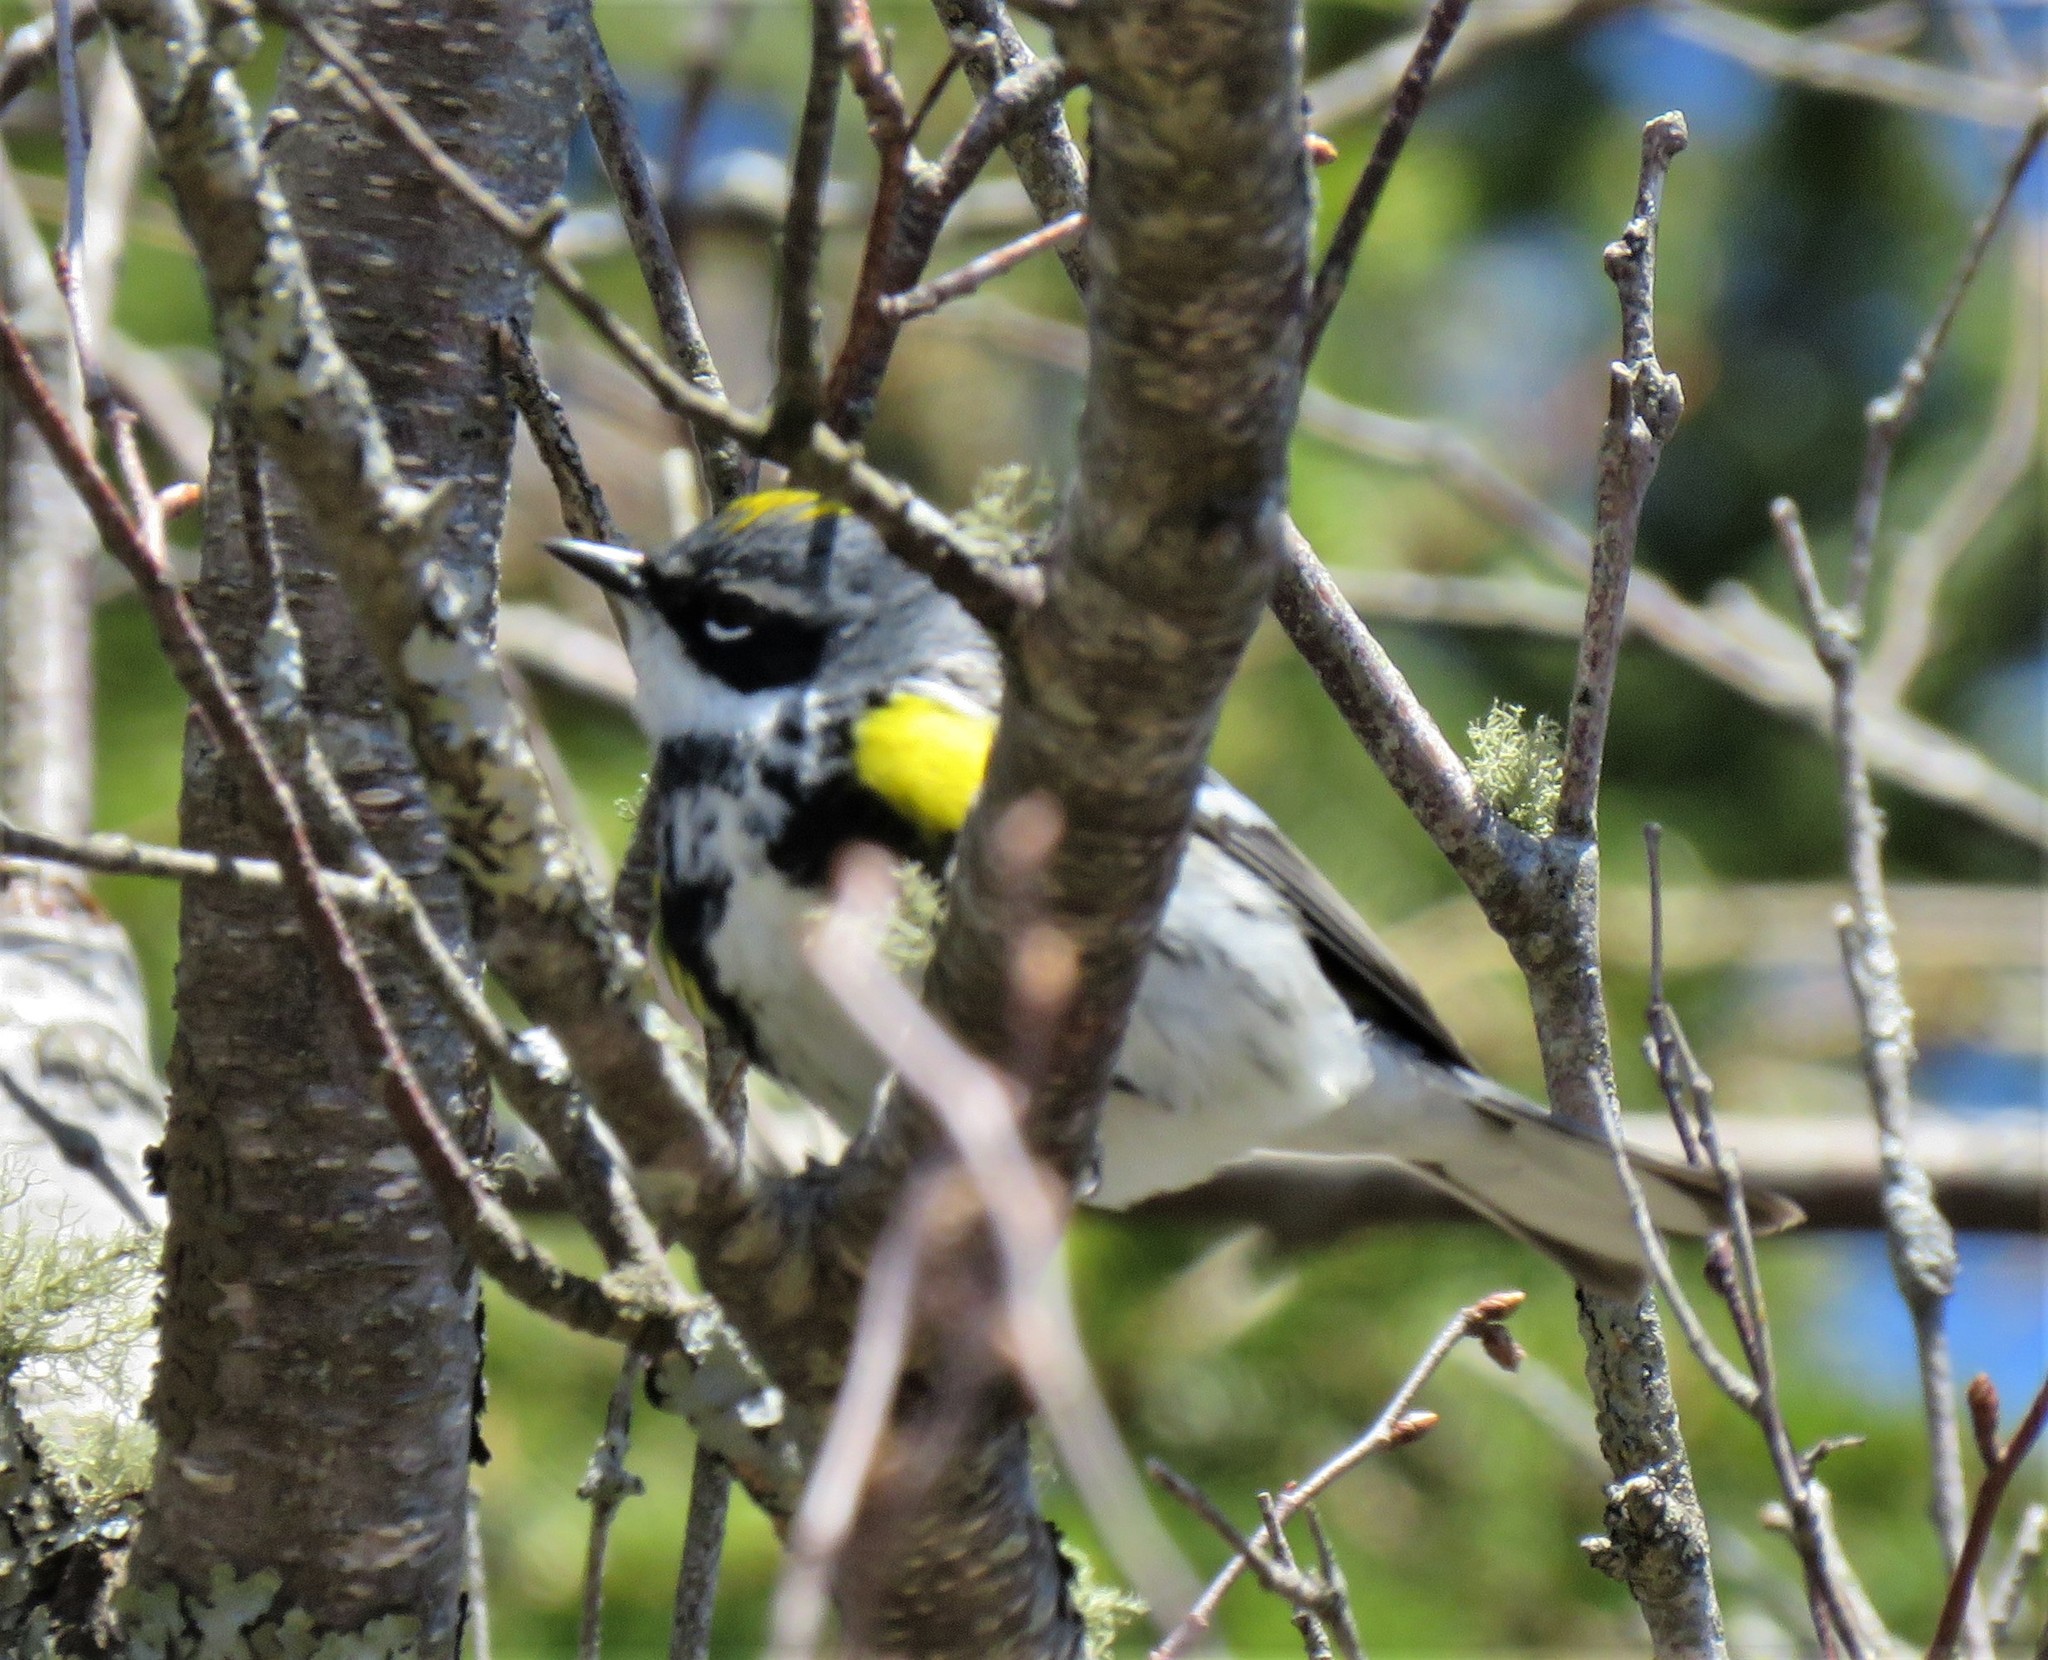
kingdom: Animalia
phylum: Chordata
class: Aves
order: Passeriformes
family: Parulidae
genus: Setophaga
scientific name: Setophaga coronata
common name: Myrtle warbler
